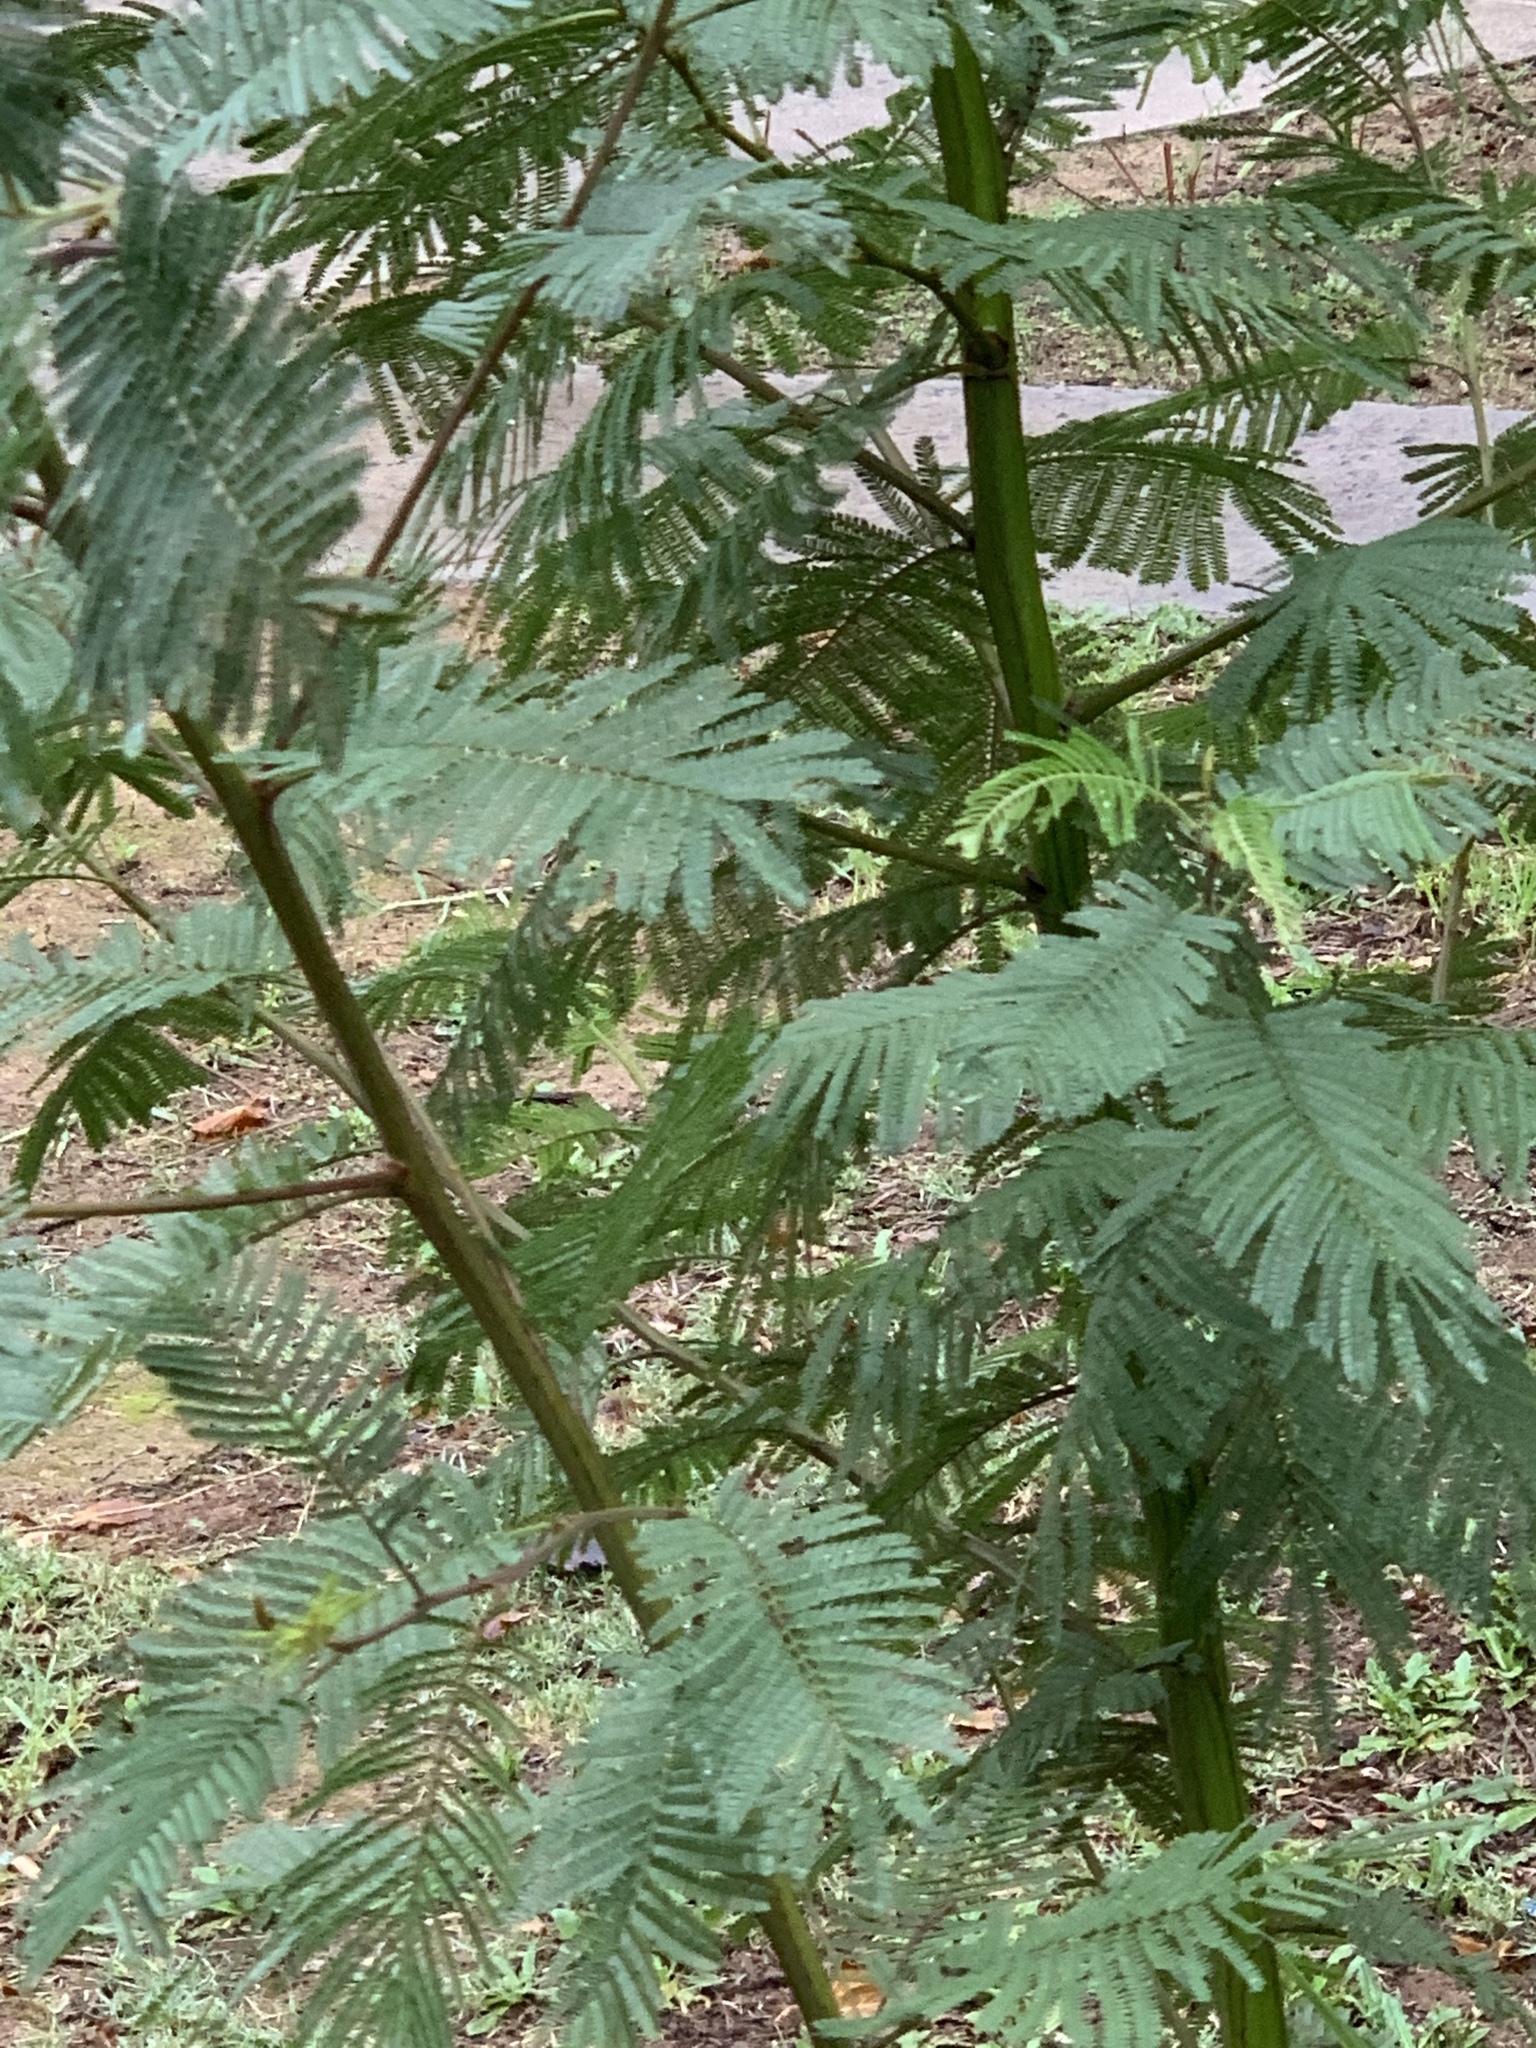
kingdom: Plantae
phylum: Tracheophyta
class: Magnoliopsida
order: Fabales
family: Fabaceae
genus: Acacia
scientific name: Acacia mearnsii
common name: Black wattle
